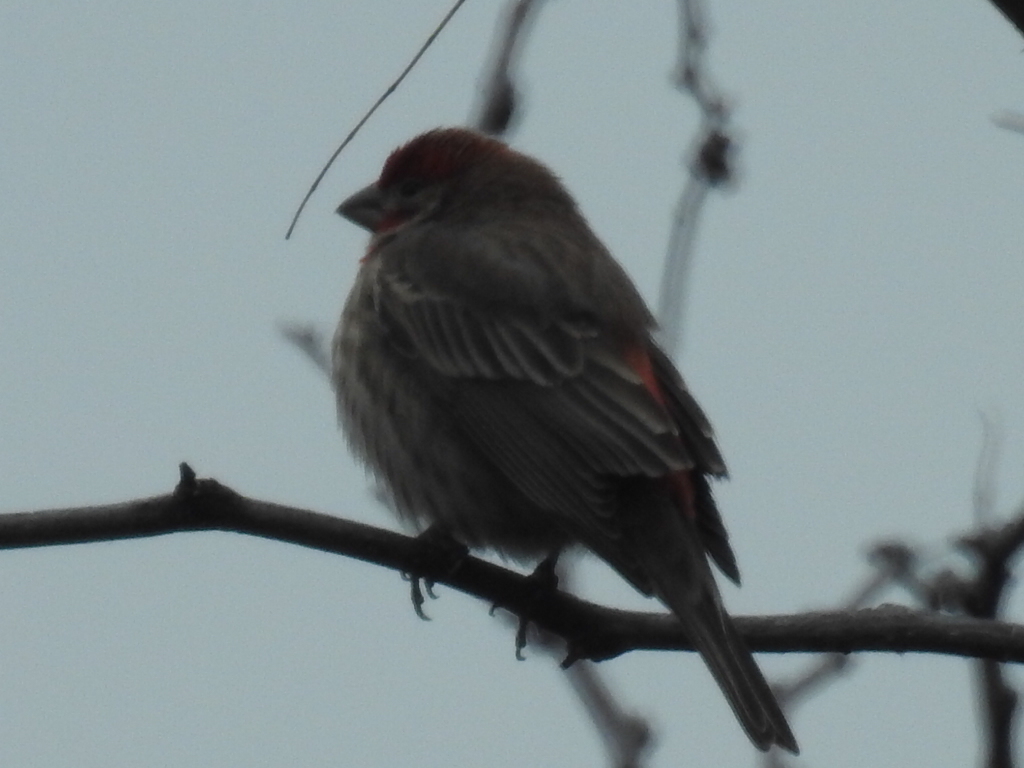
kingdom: Animalia
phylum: Chordata
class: Aves
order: Passeriformes
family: Fringillidae
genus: Haemorhous
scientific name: Haemorhous mexicanus
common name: House finch
